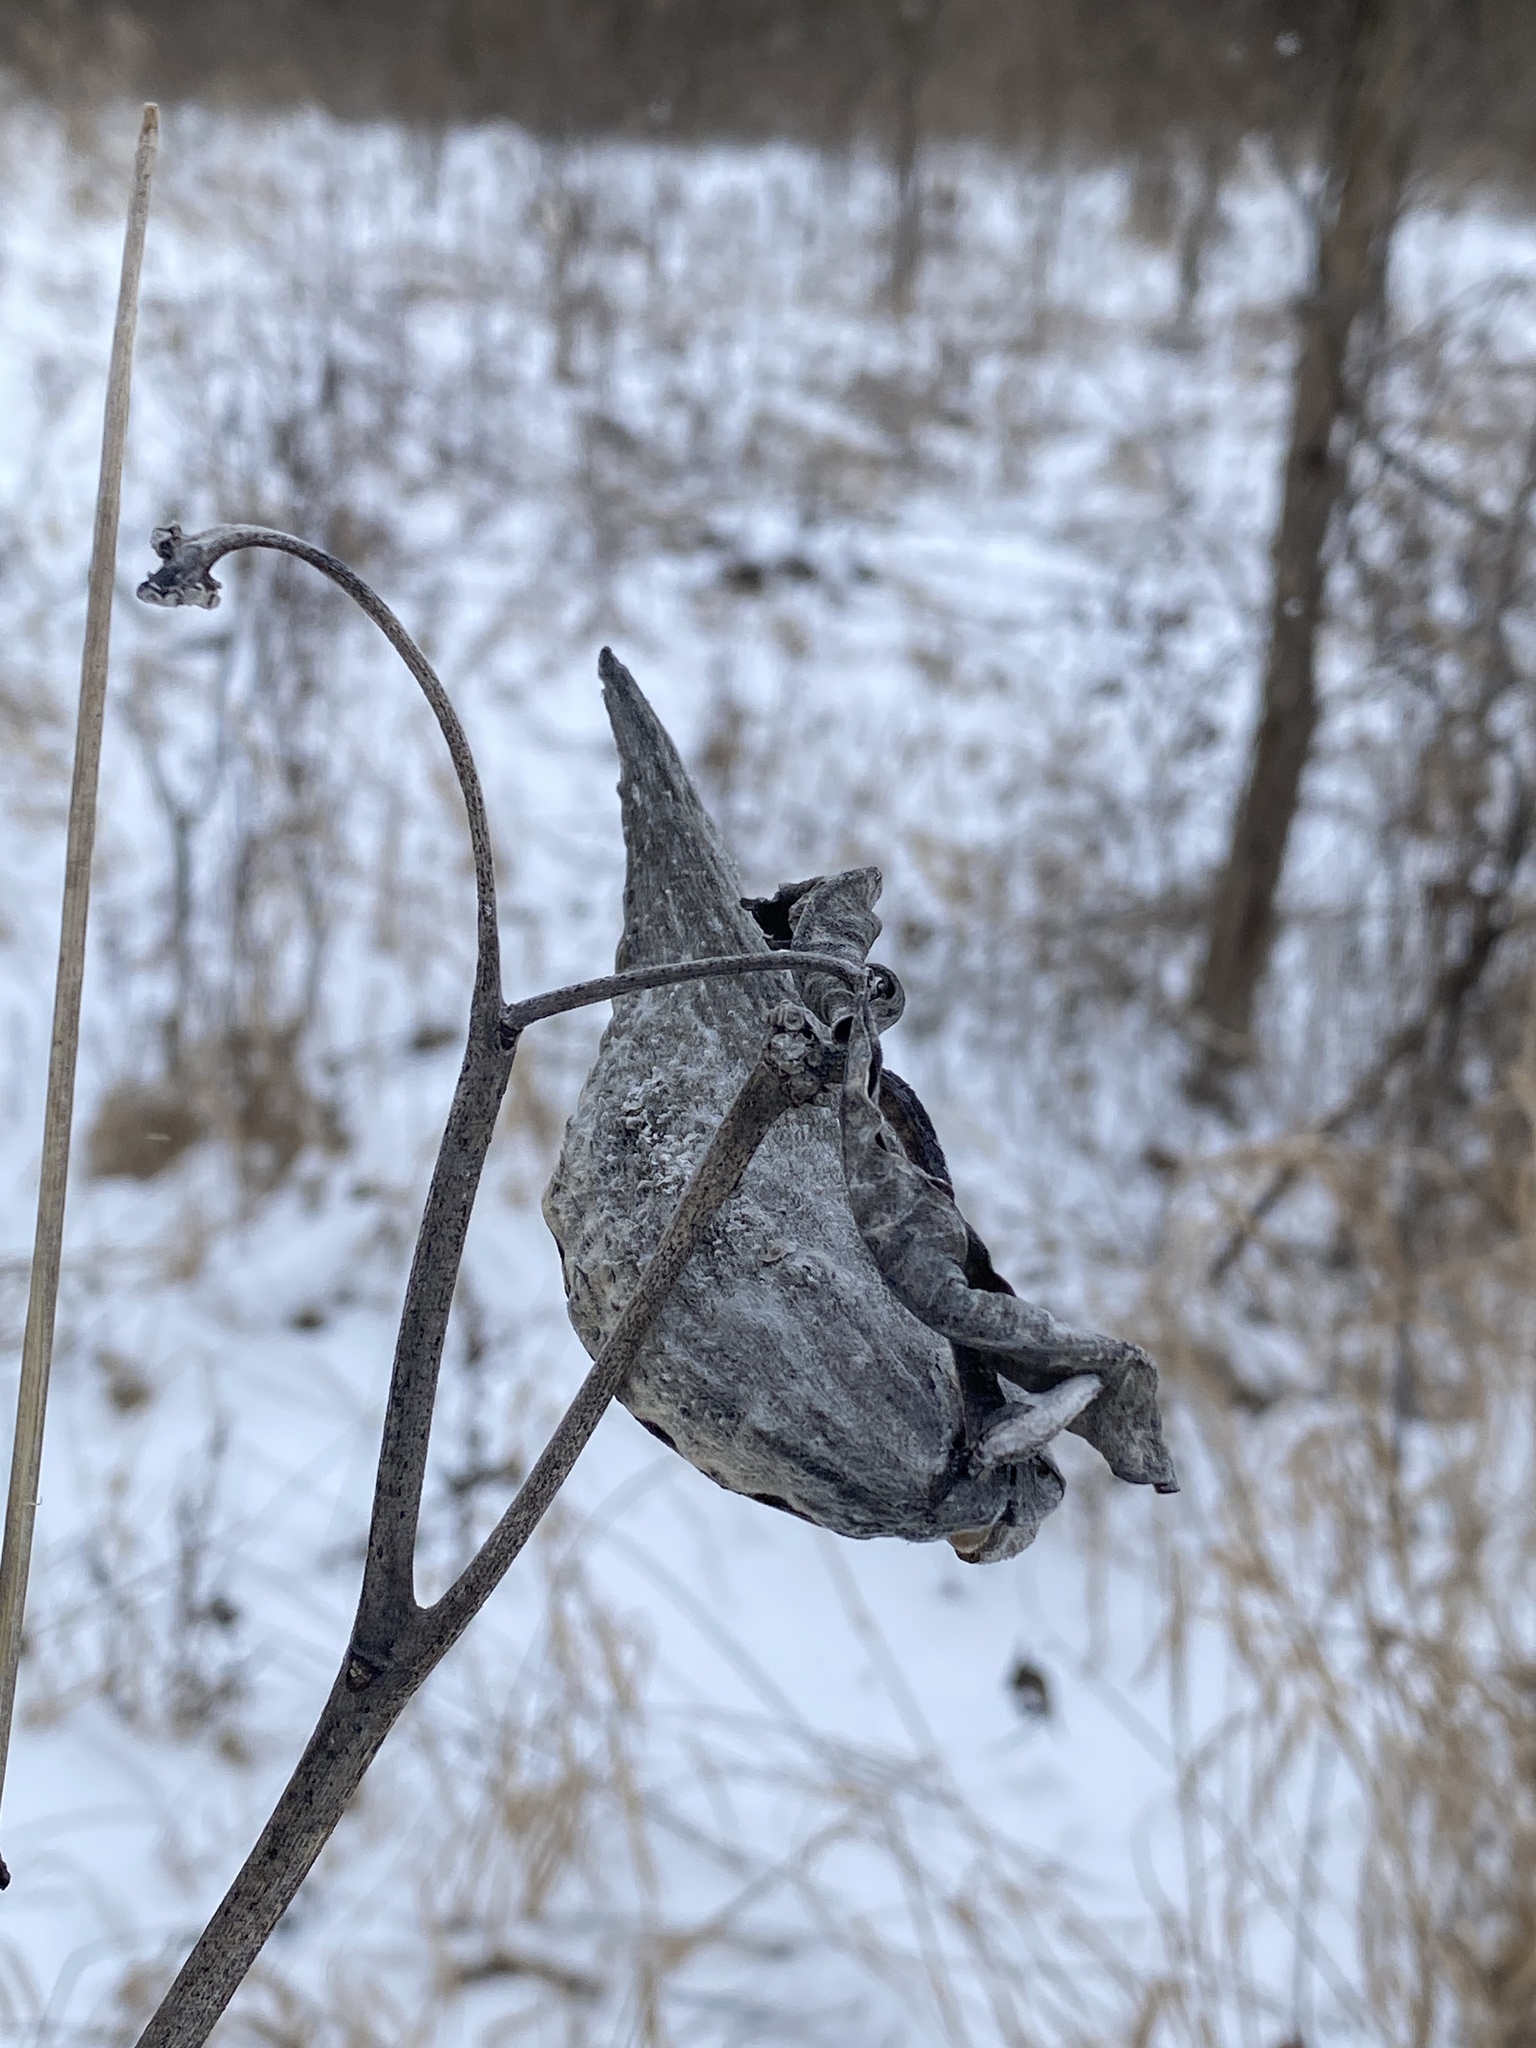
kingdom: Plantae
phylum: Tracheophyta
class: Magnoliopsida
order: Gentianales
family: Apocynaceae
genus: Asclepias
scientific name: Asclepias syriaca
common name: Common milkweed
